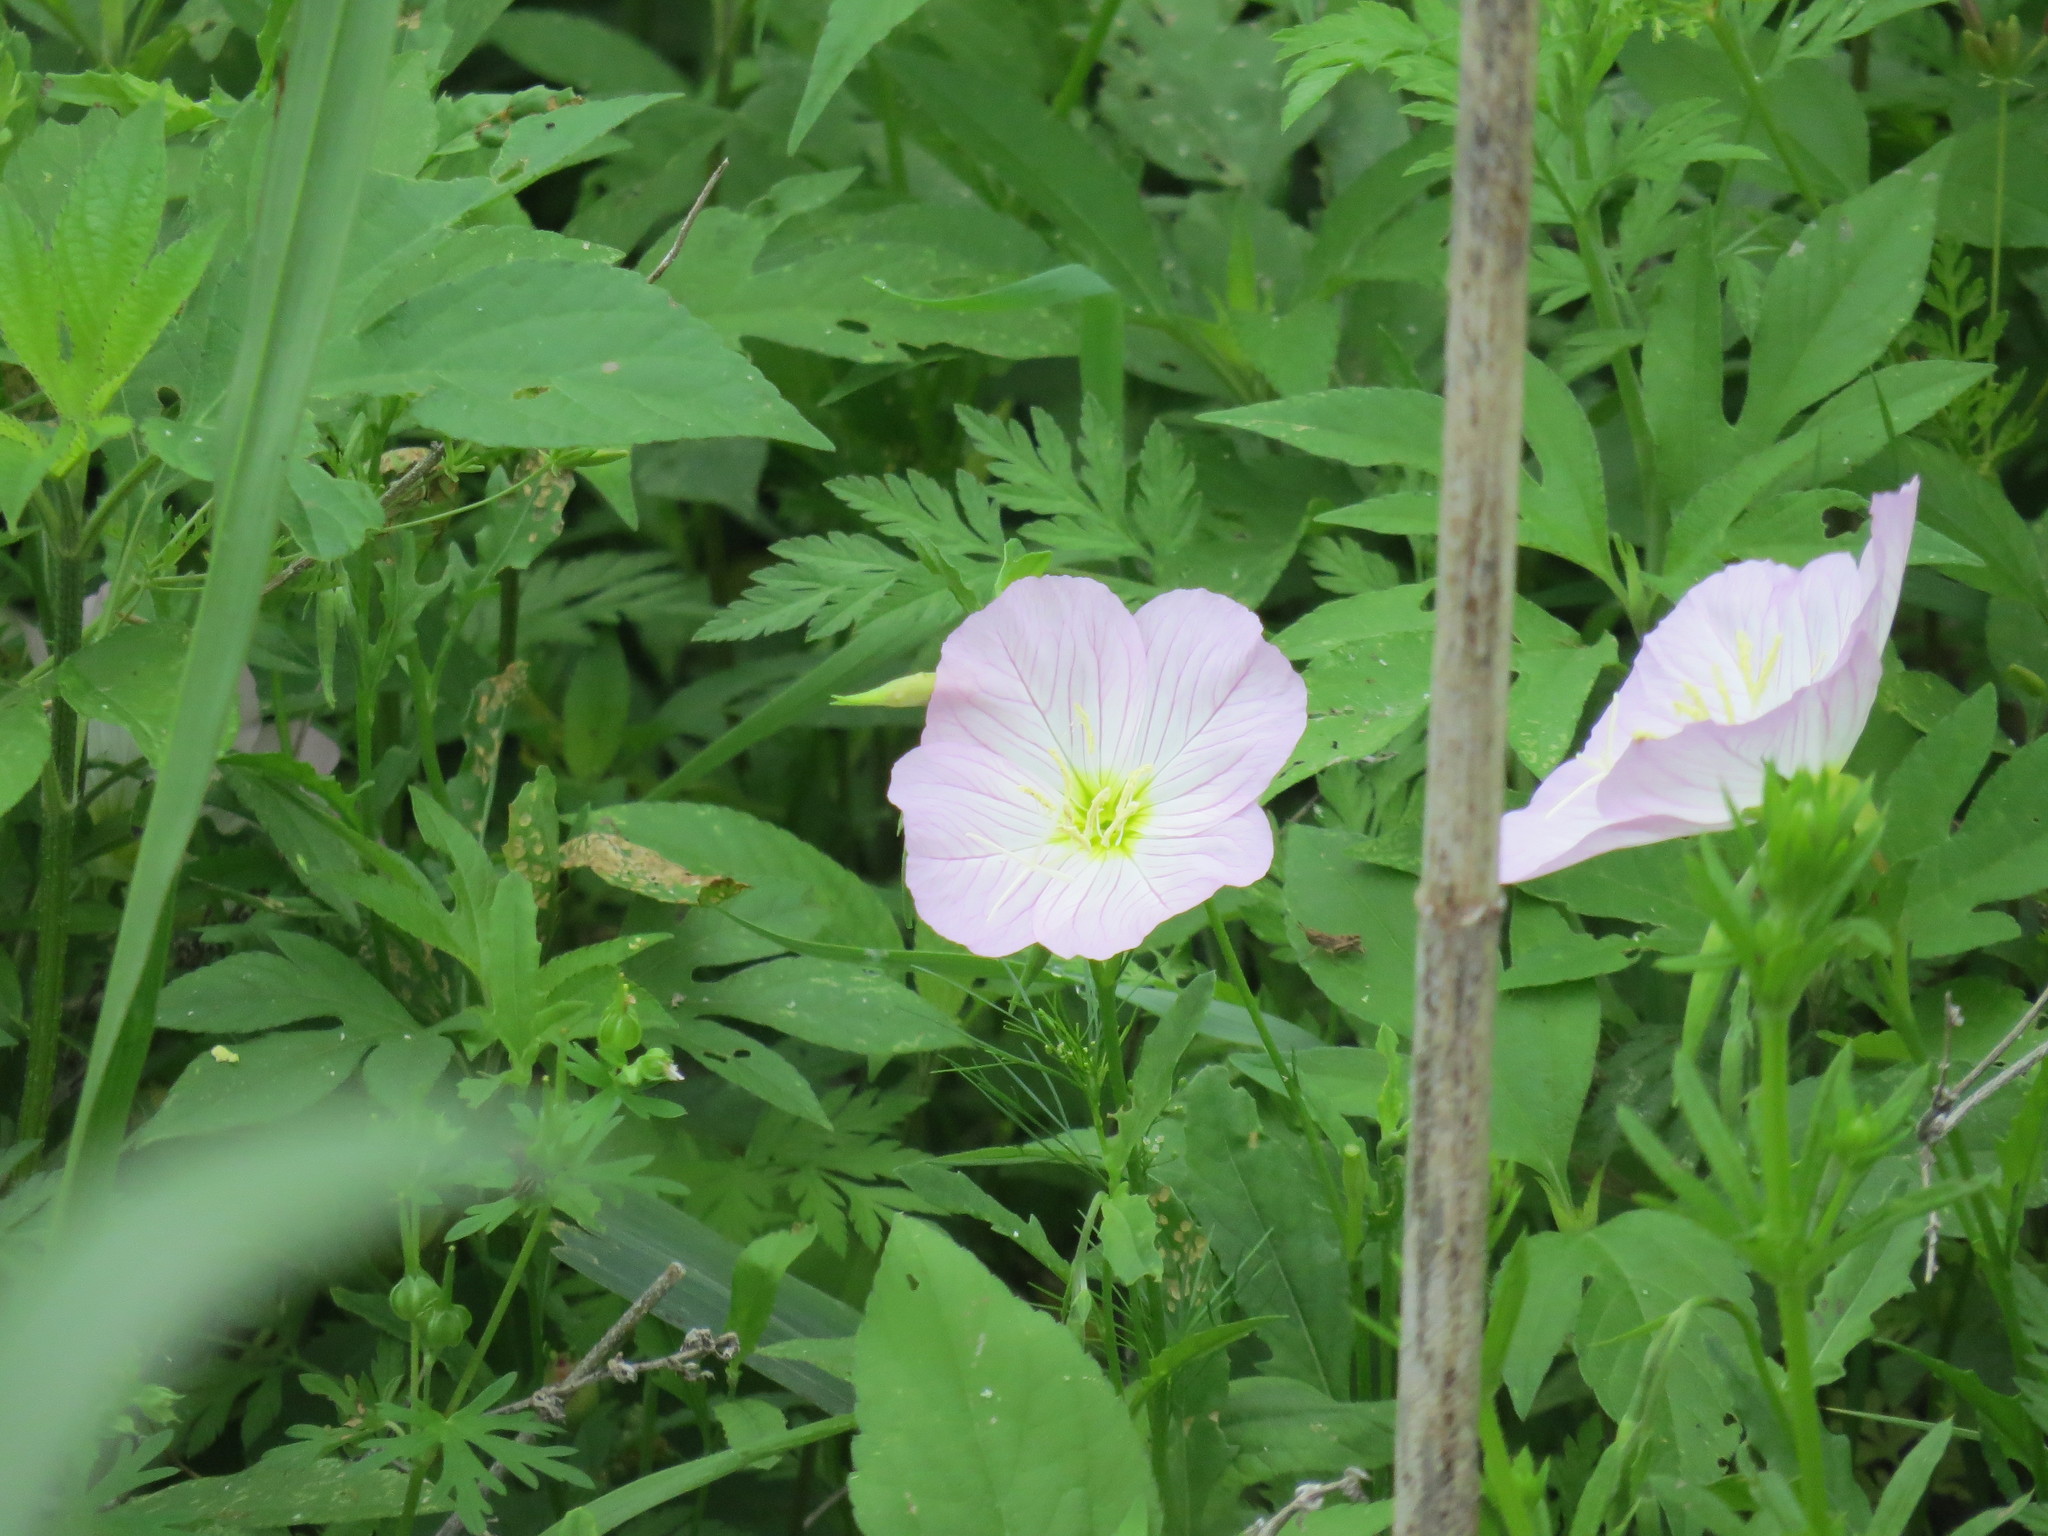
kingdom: Plantae
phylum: Tracheophyta
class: Magnoliopsida
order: Myrtales
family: Onagraceae
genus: Oenothera
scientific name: Oenothera speciosa
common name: White evening-primrose
